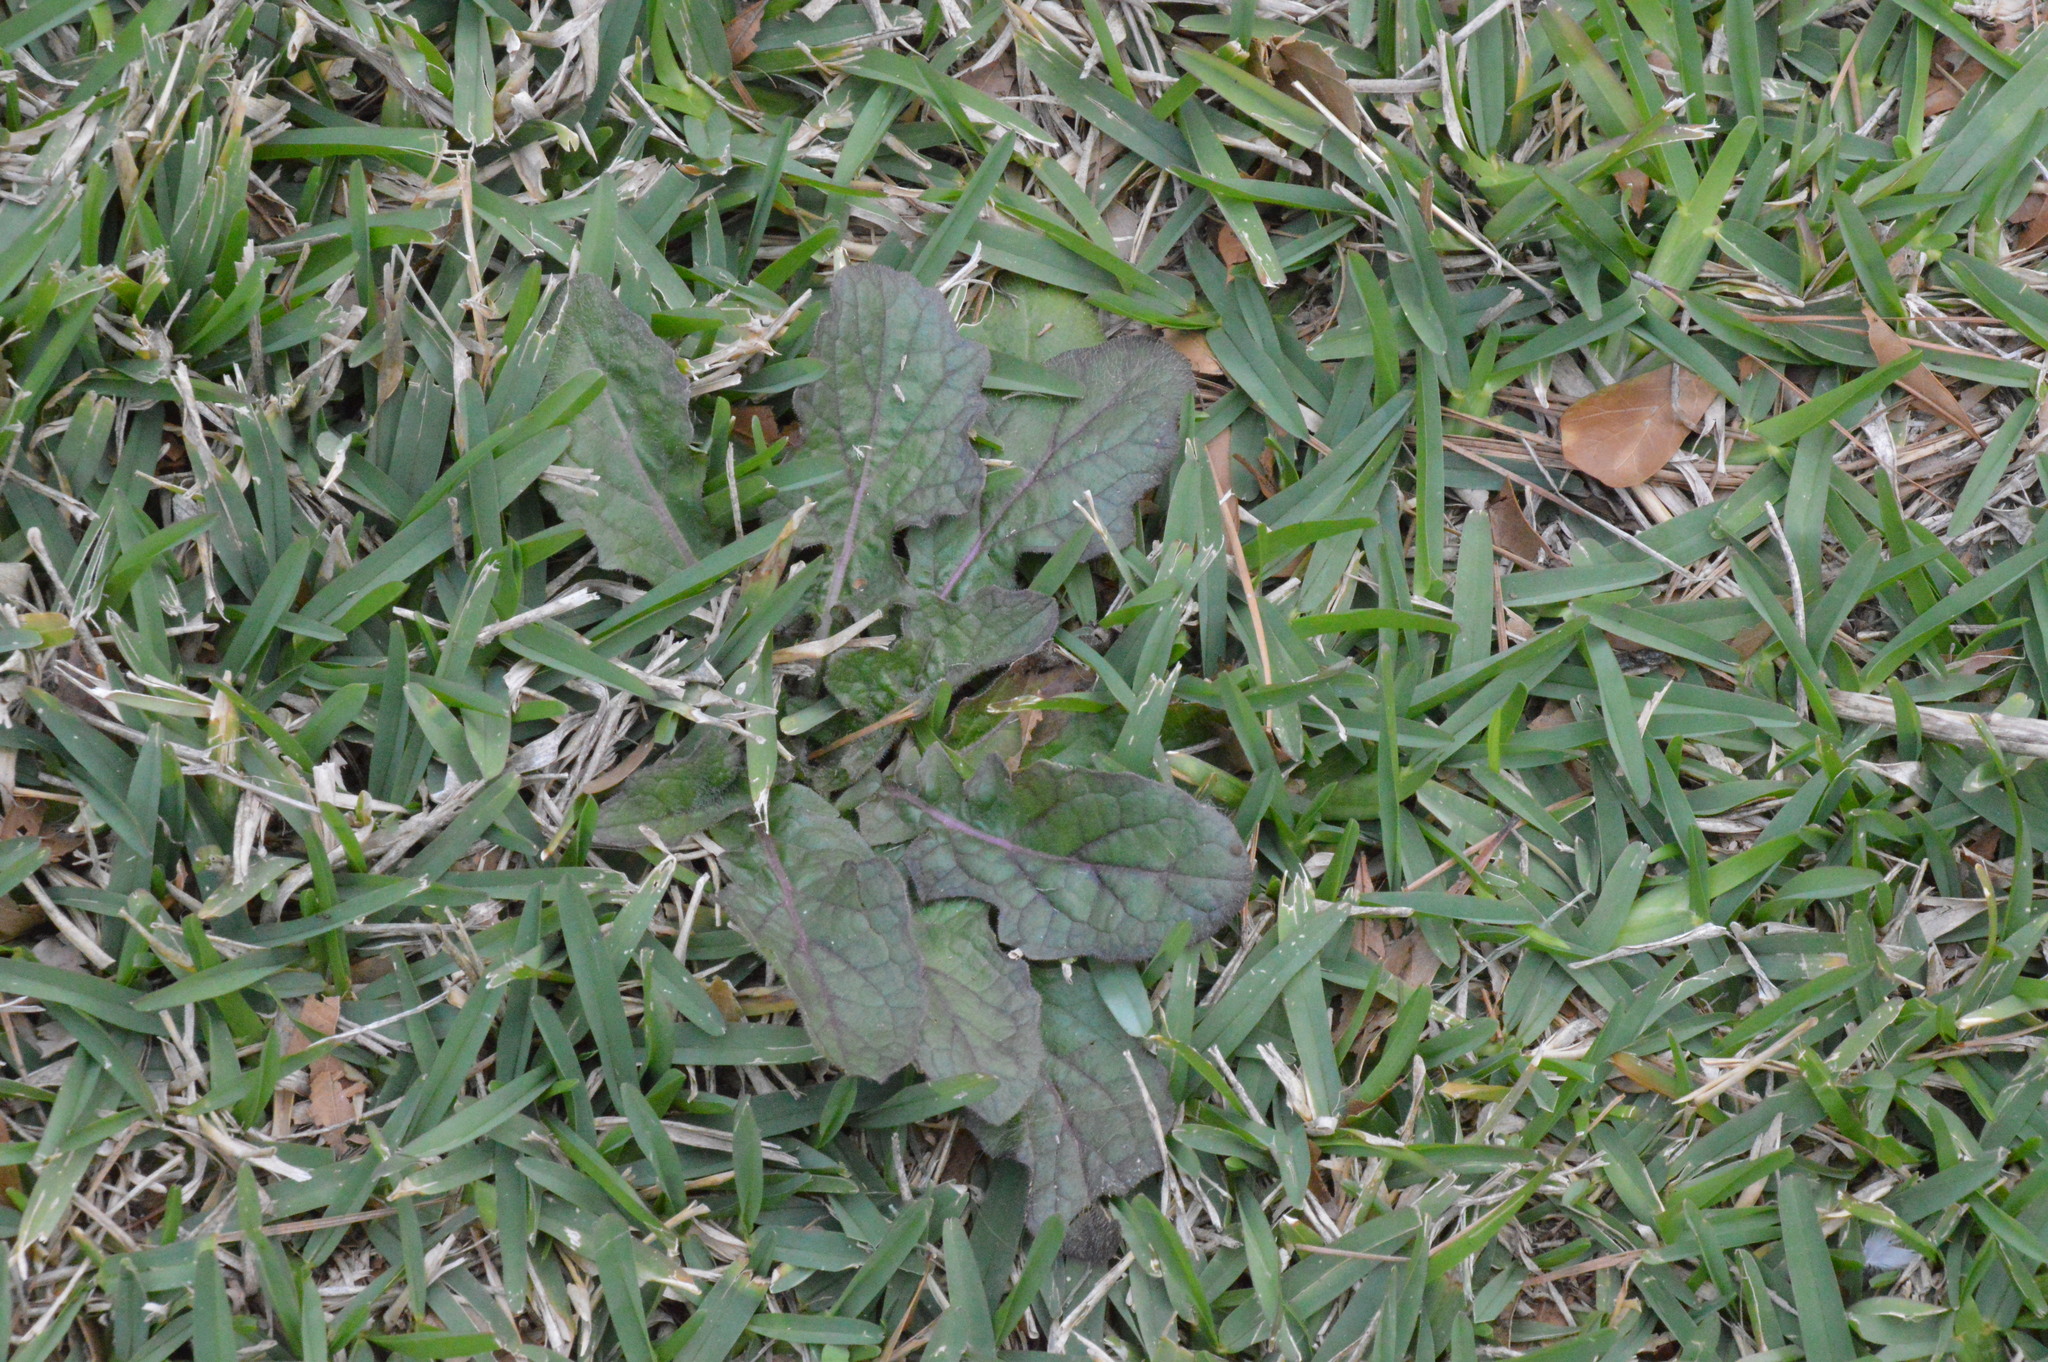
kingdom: Plantae
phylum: Tracheophyta
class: Magnoliopsida
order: Lamiales
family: Lamiaceae
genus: Salvia
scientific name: Salvia lyrata
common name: Cancerweed
